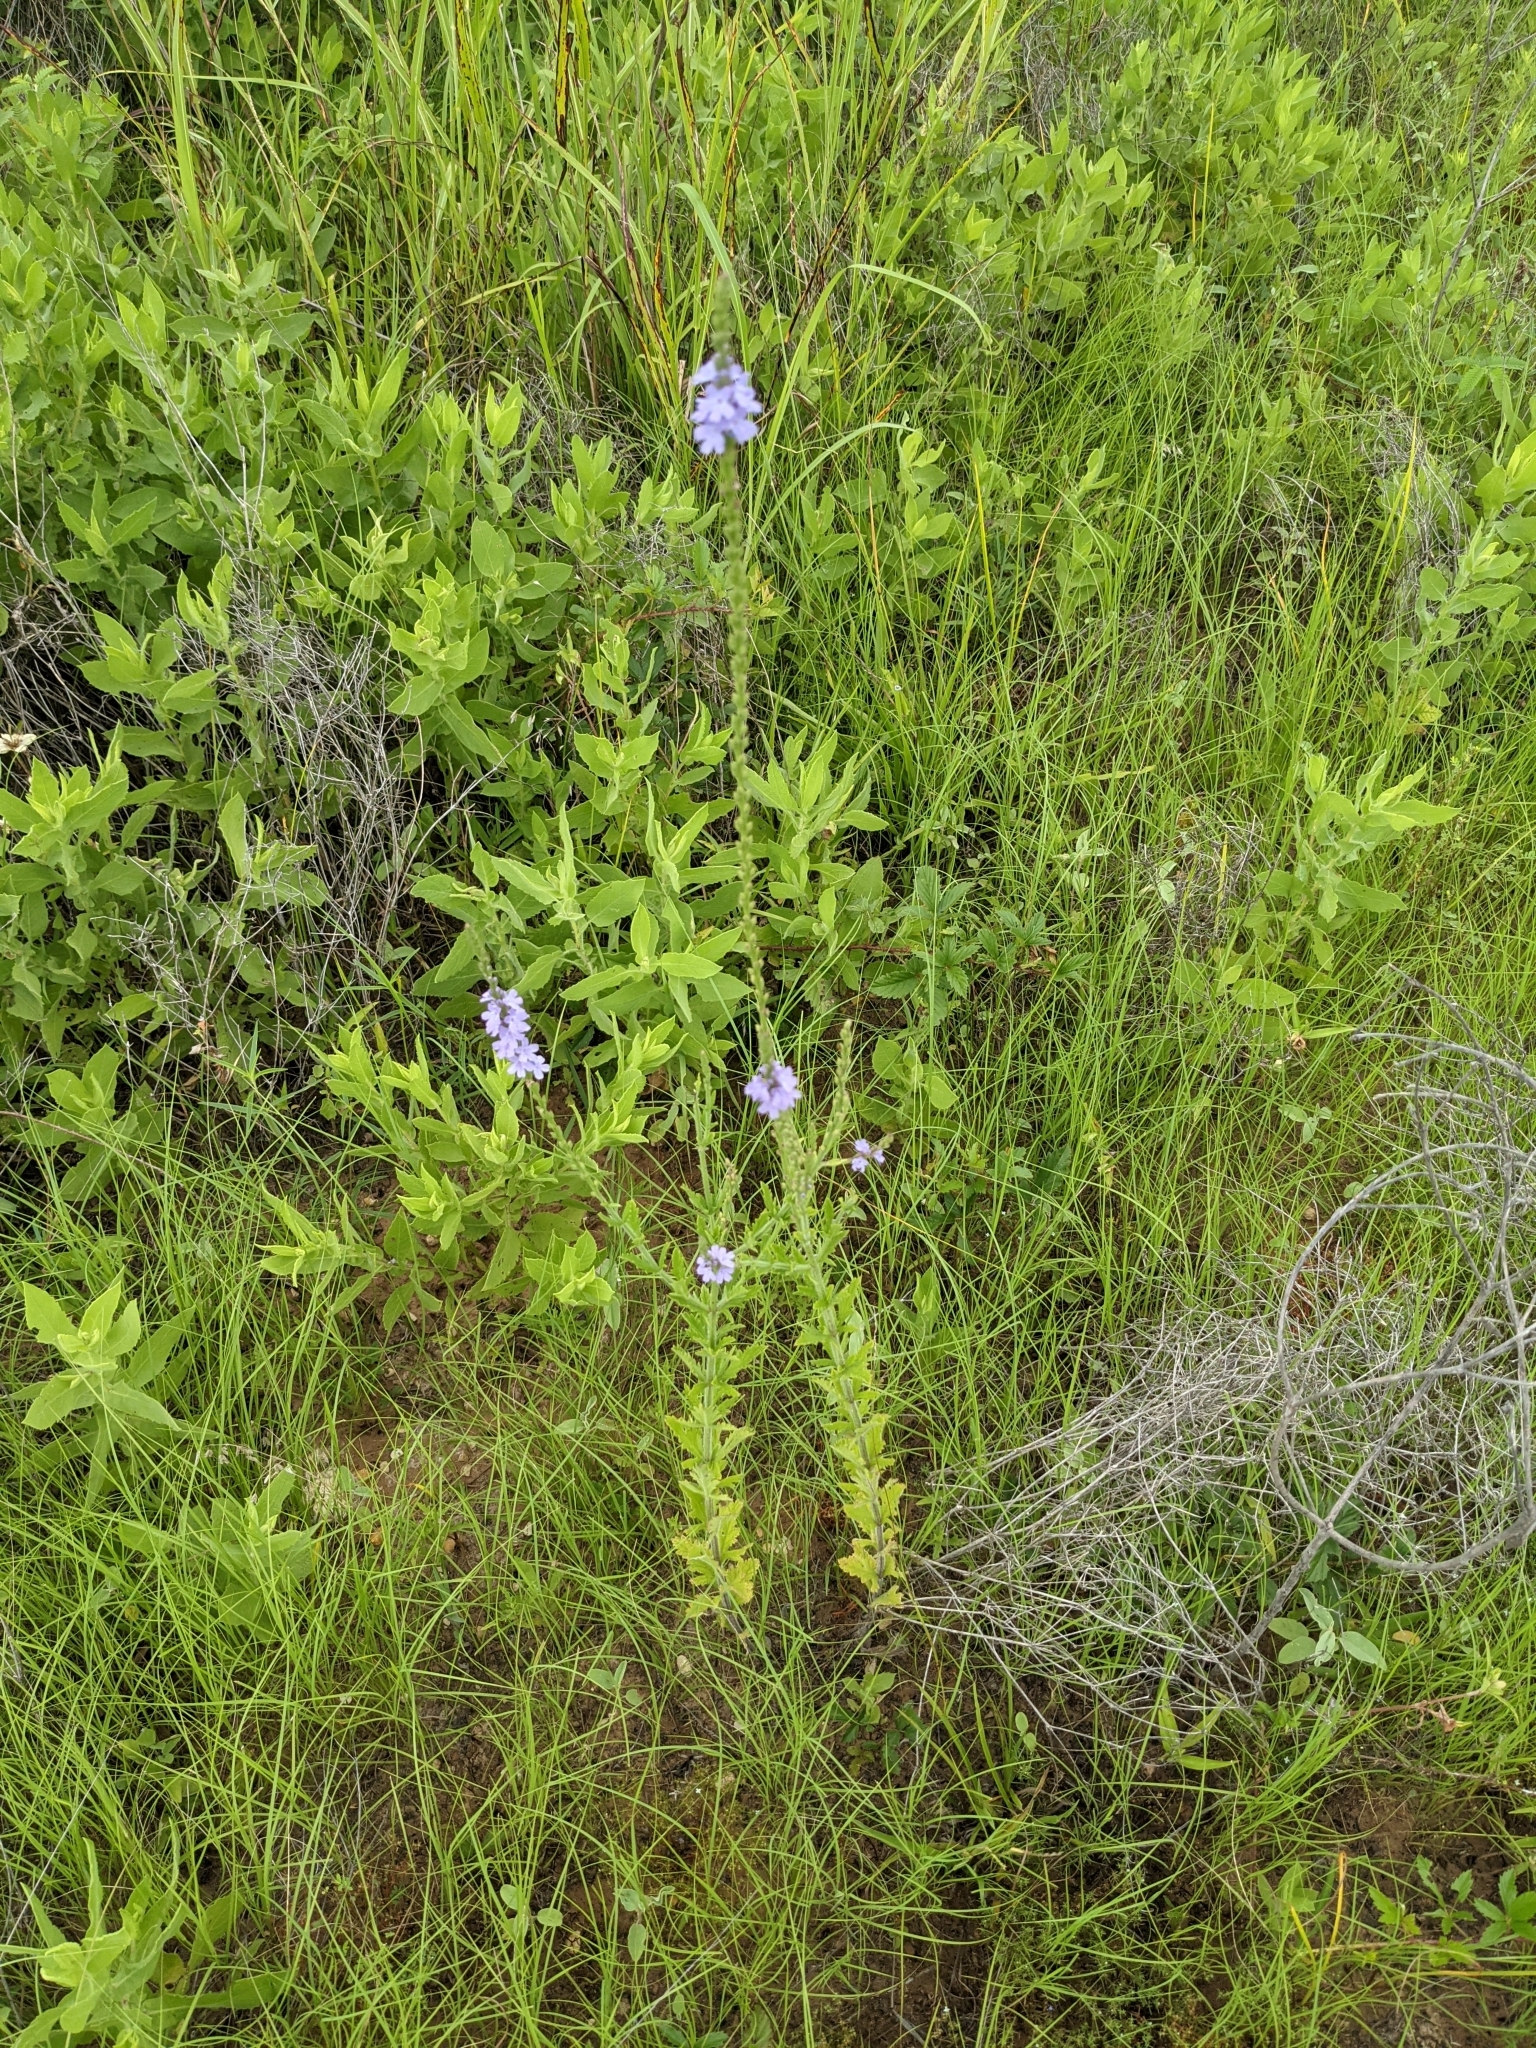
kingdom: Plantae
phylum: Tracheophyta
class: Magnoliopsida
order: Lamiales
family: Verbenaceae
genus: Verbena
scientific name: Verbena xutha
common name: Gulf vervain
